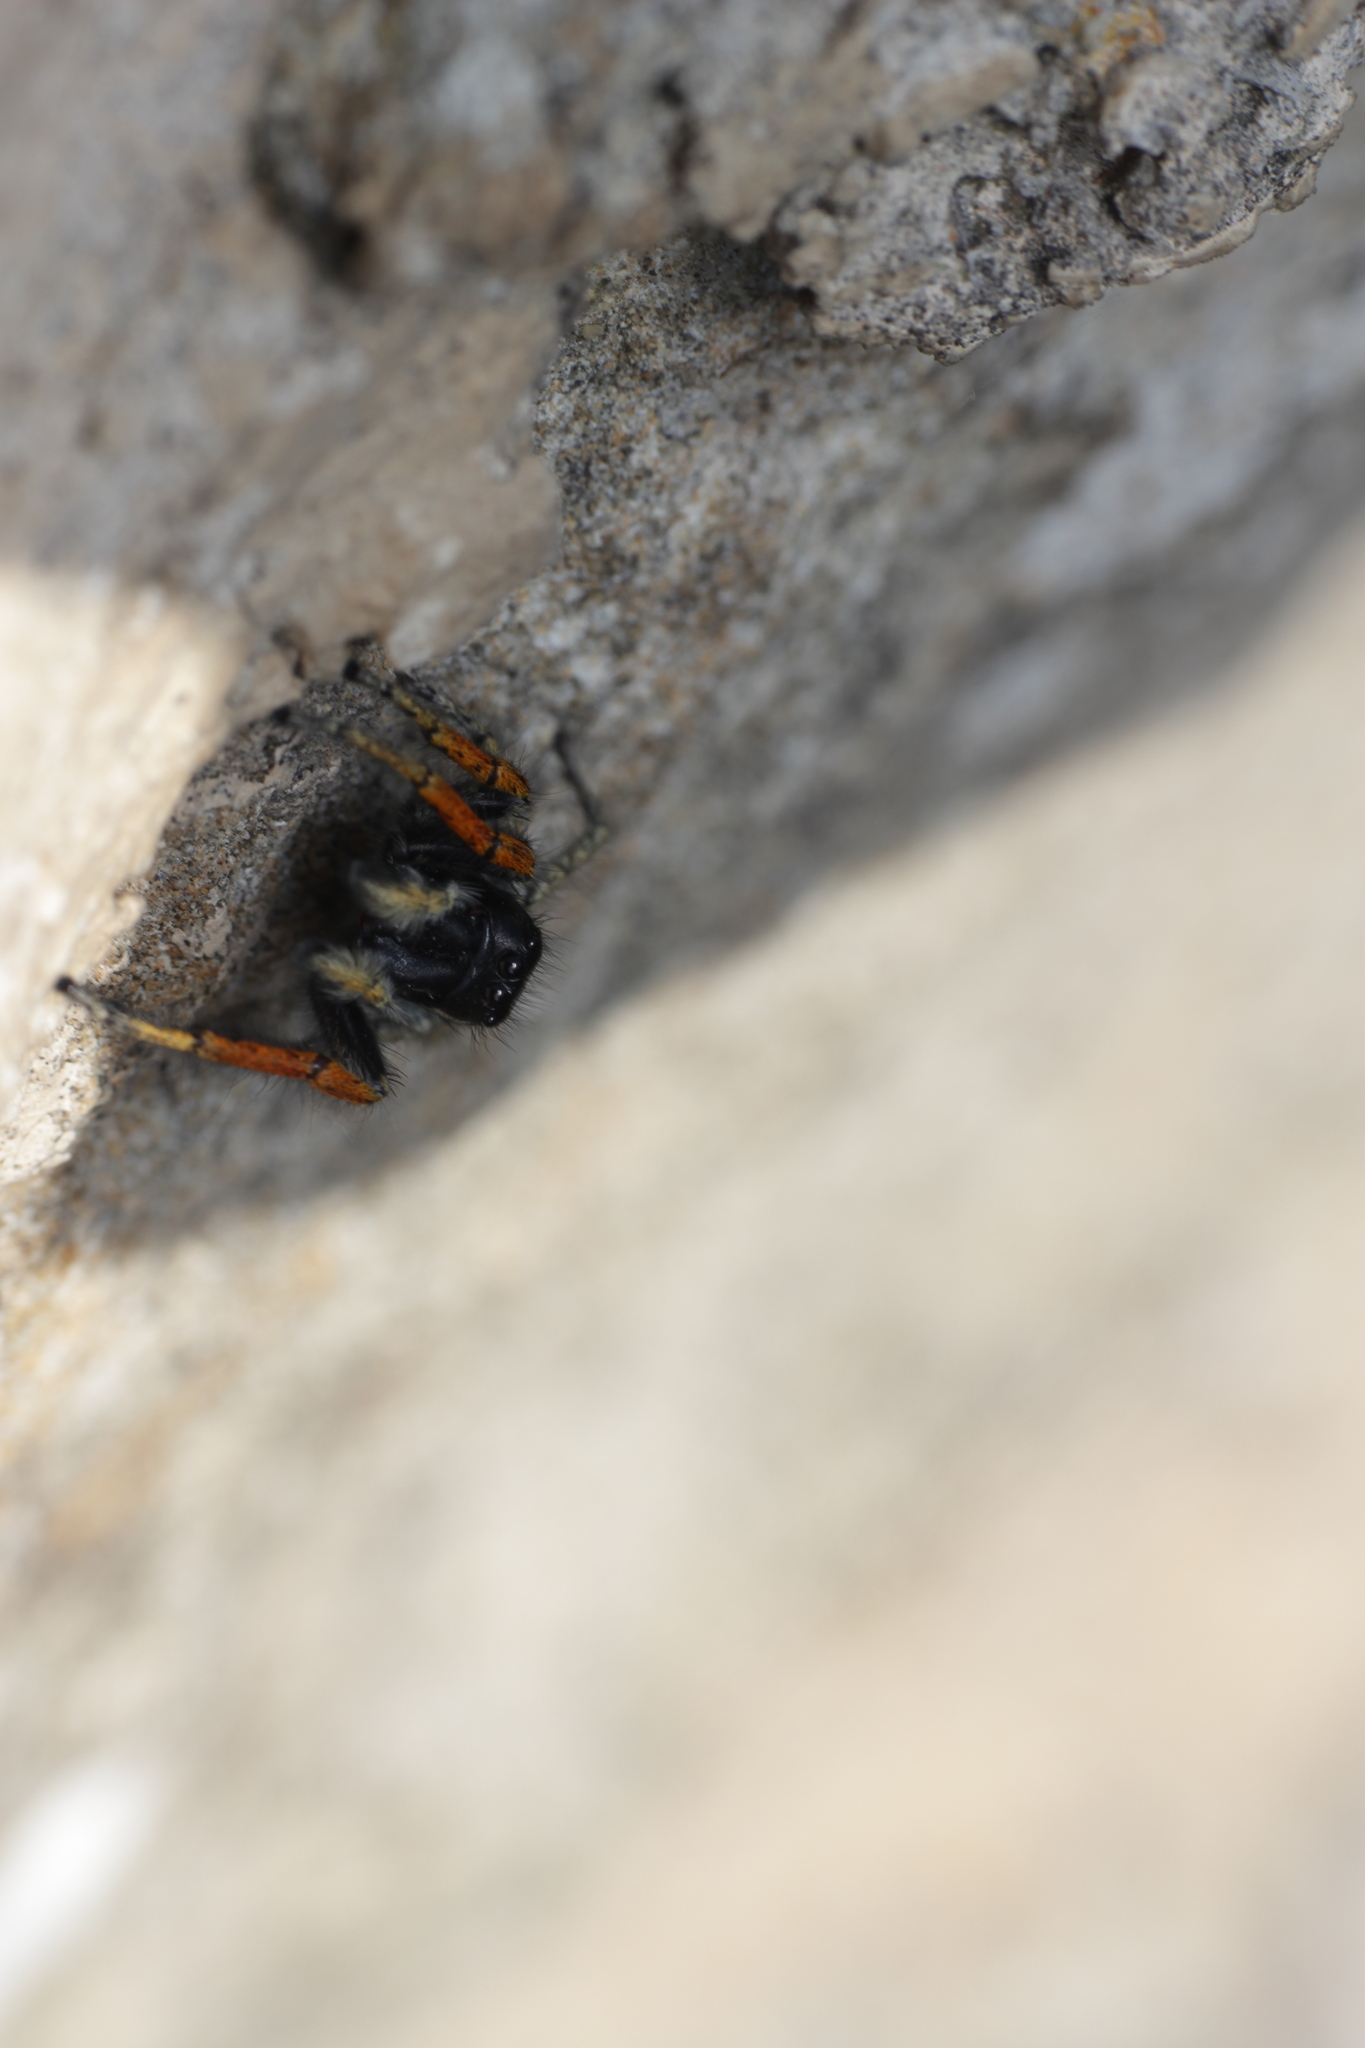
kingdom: Animalia
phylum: Arthropoda
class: Arachnida
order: Araneae
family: Salticidae
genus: Philaeus
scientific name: Philaeus chrysops
